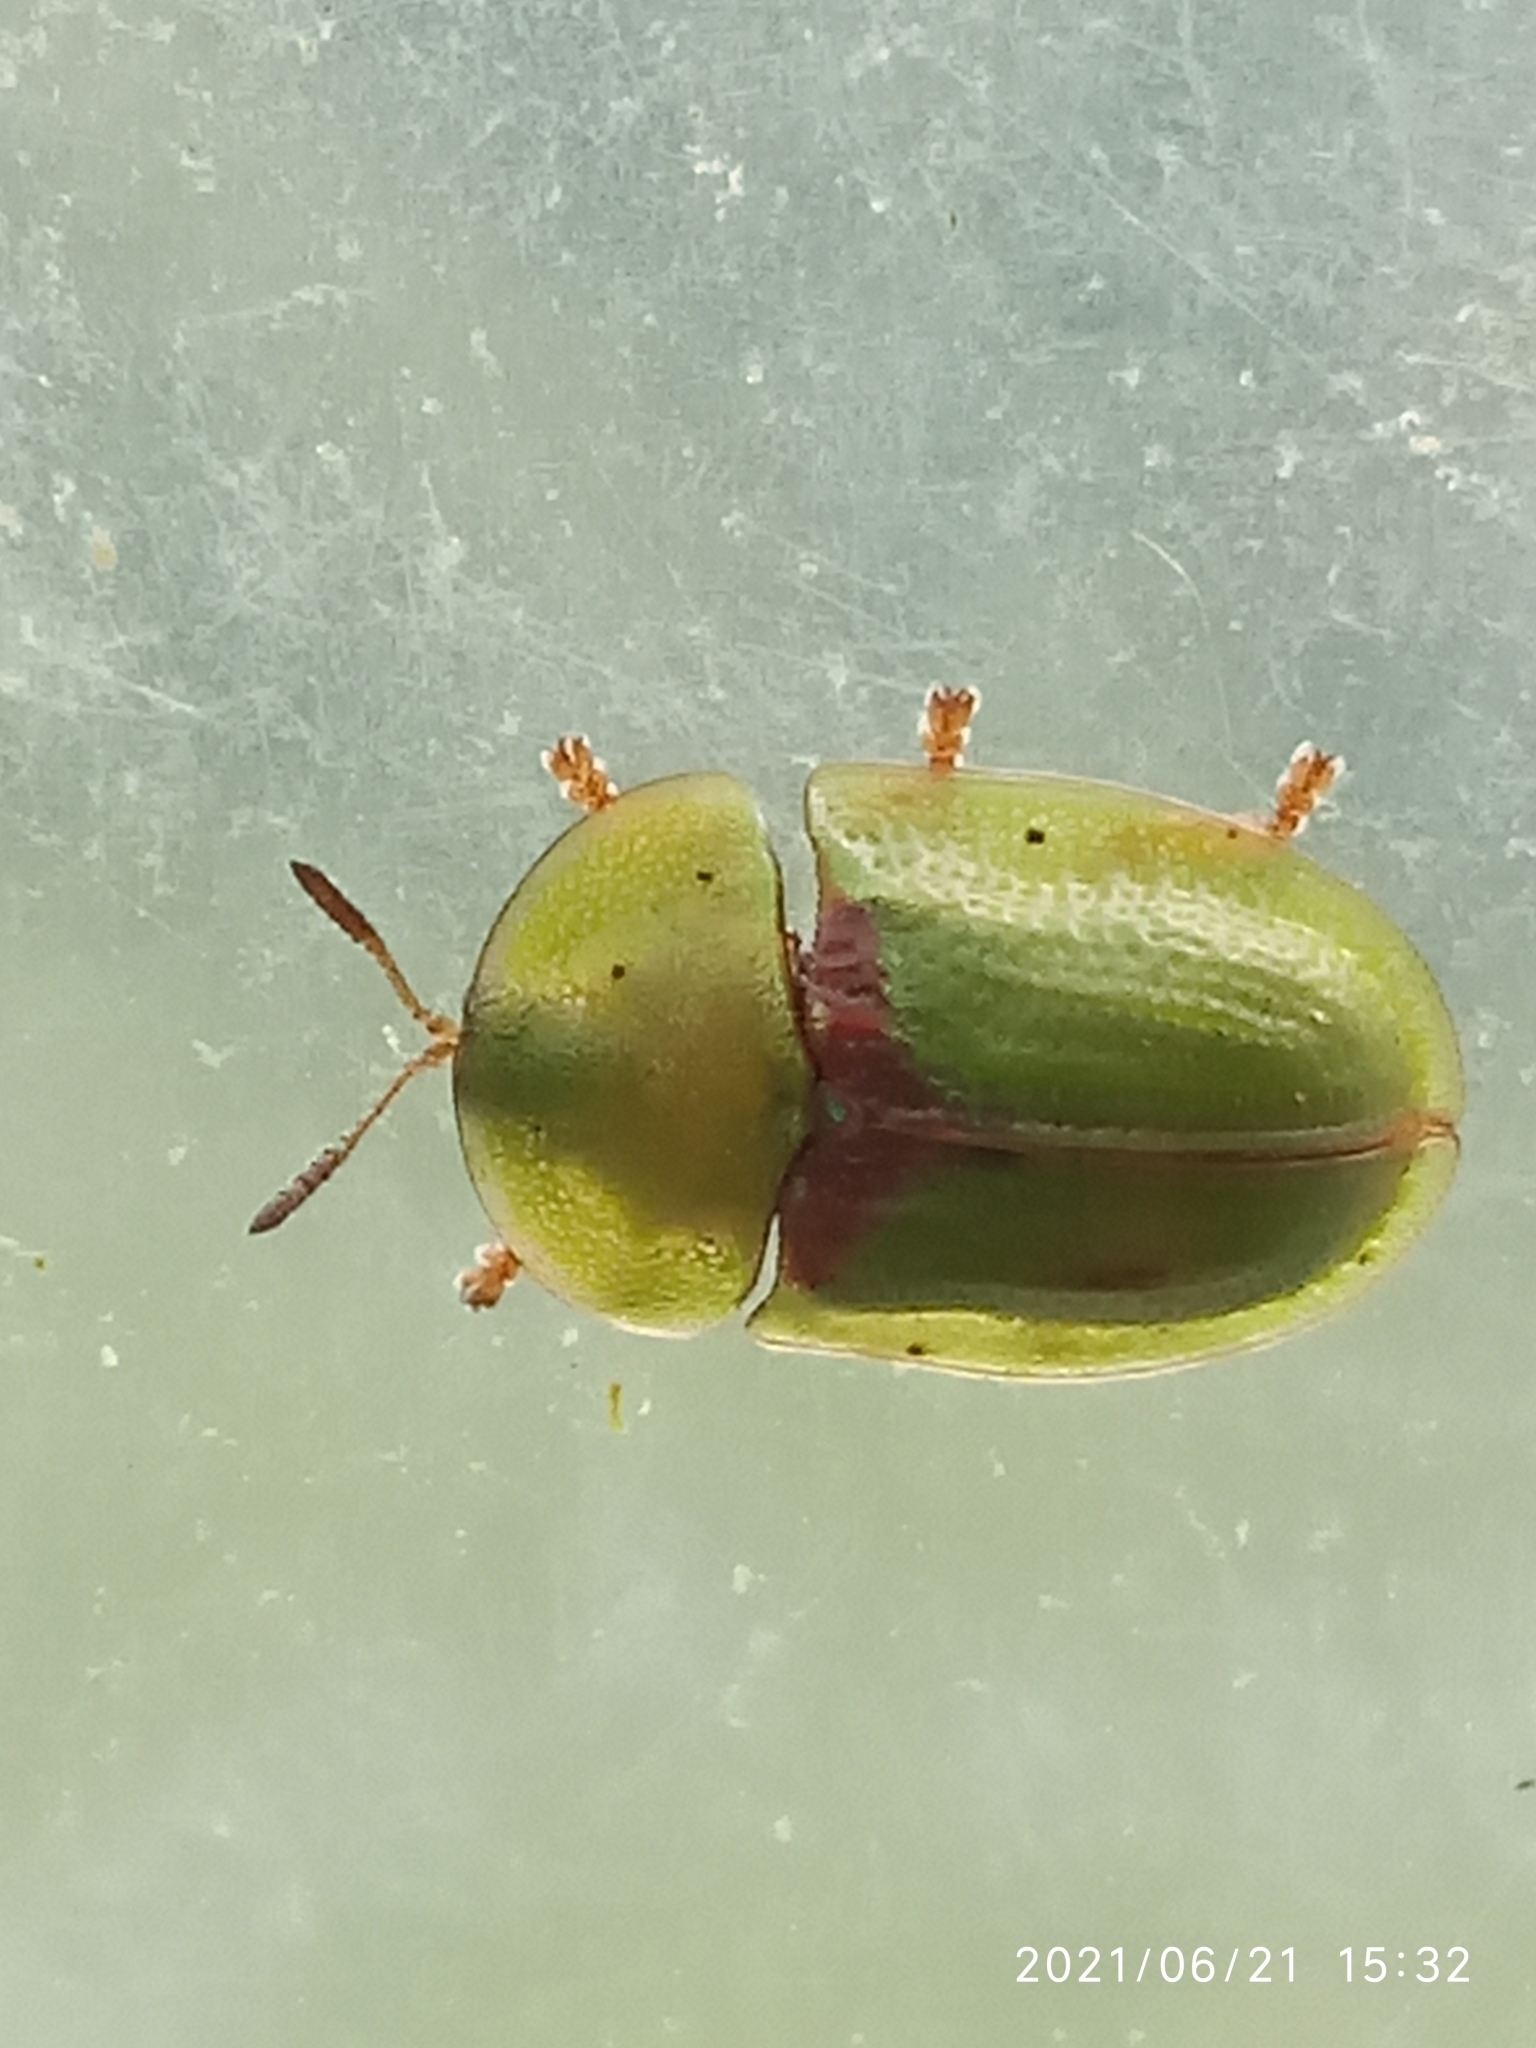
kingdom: Animalia
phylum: Arthropoda
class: Insecta
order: Coleoptera
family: Chrysomelidae
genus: Cassida
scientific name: Cassida denticollis
